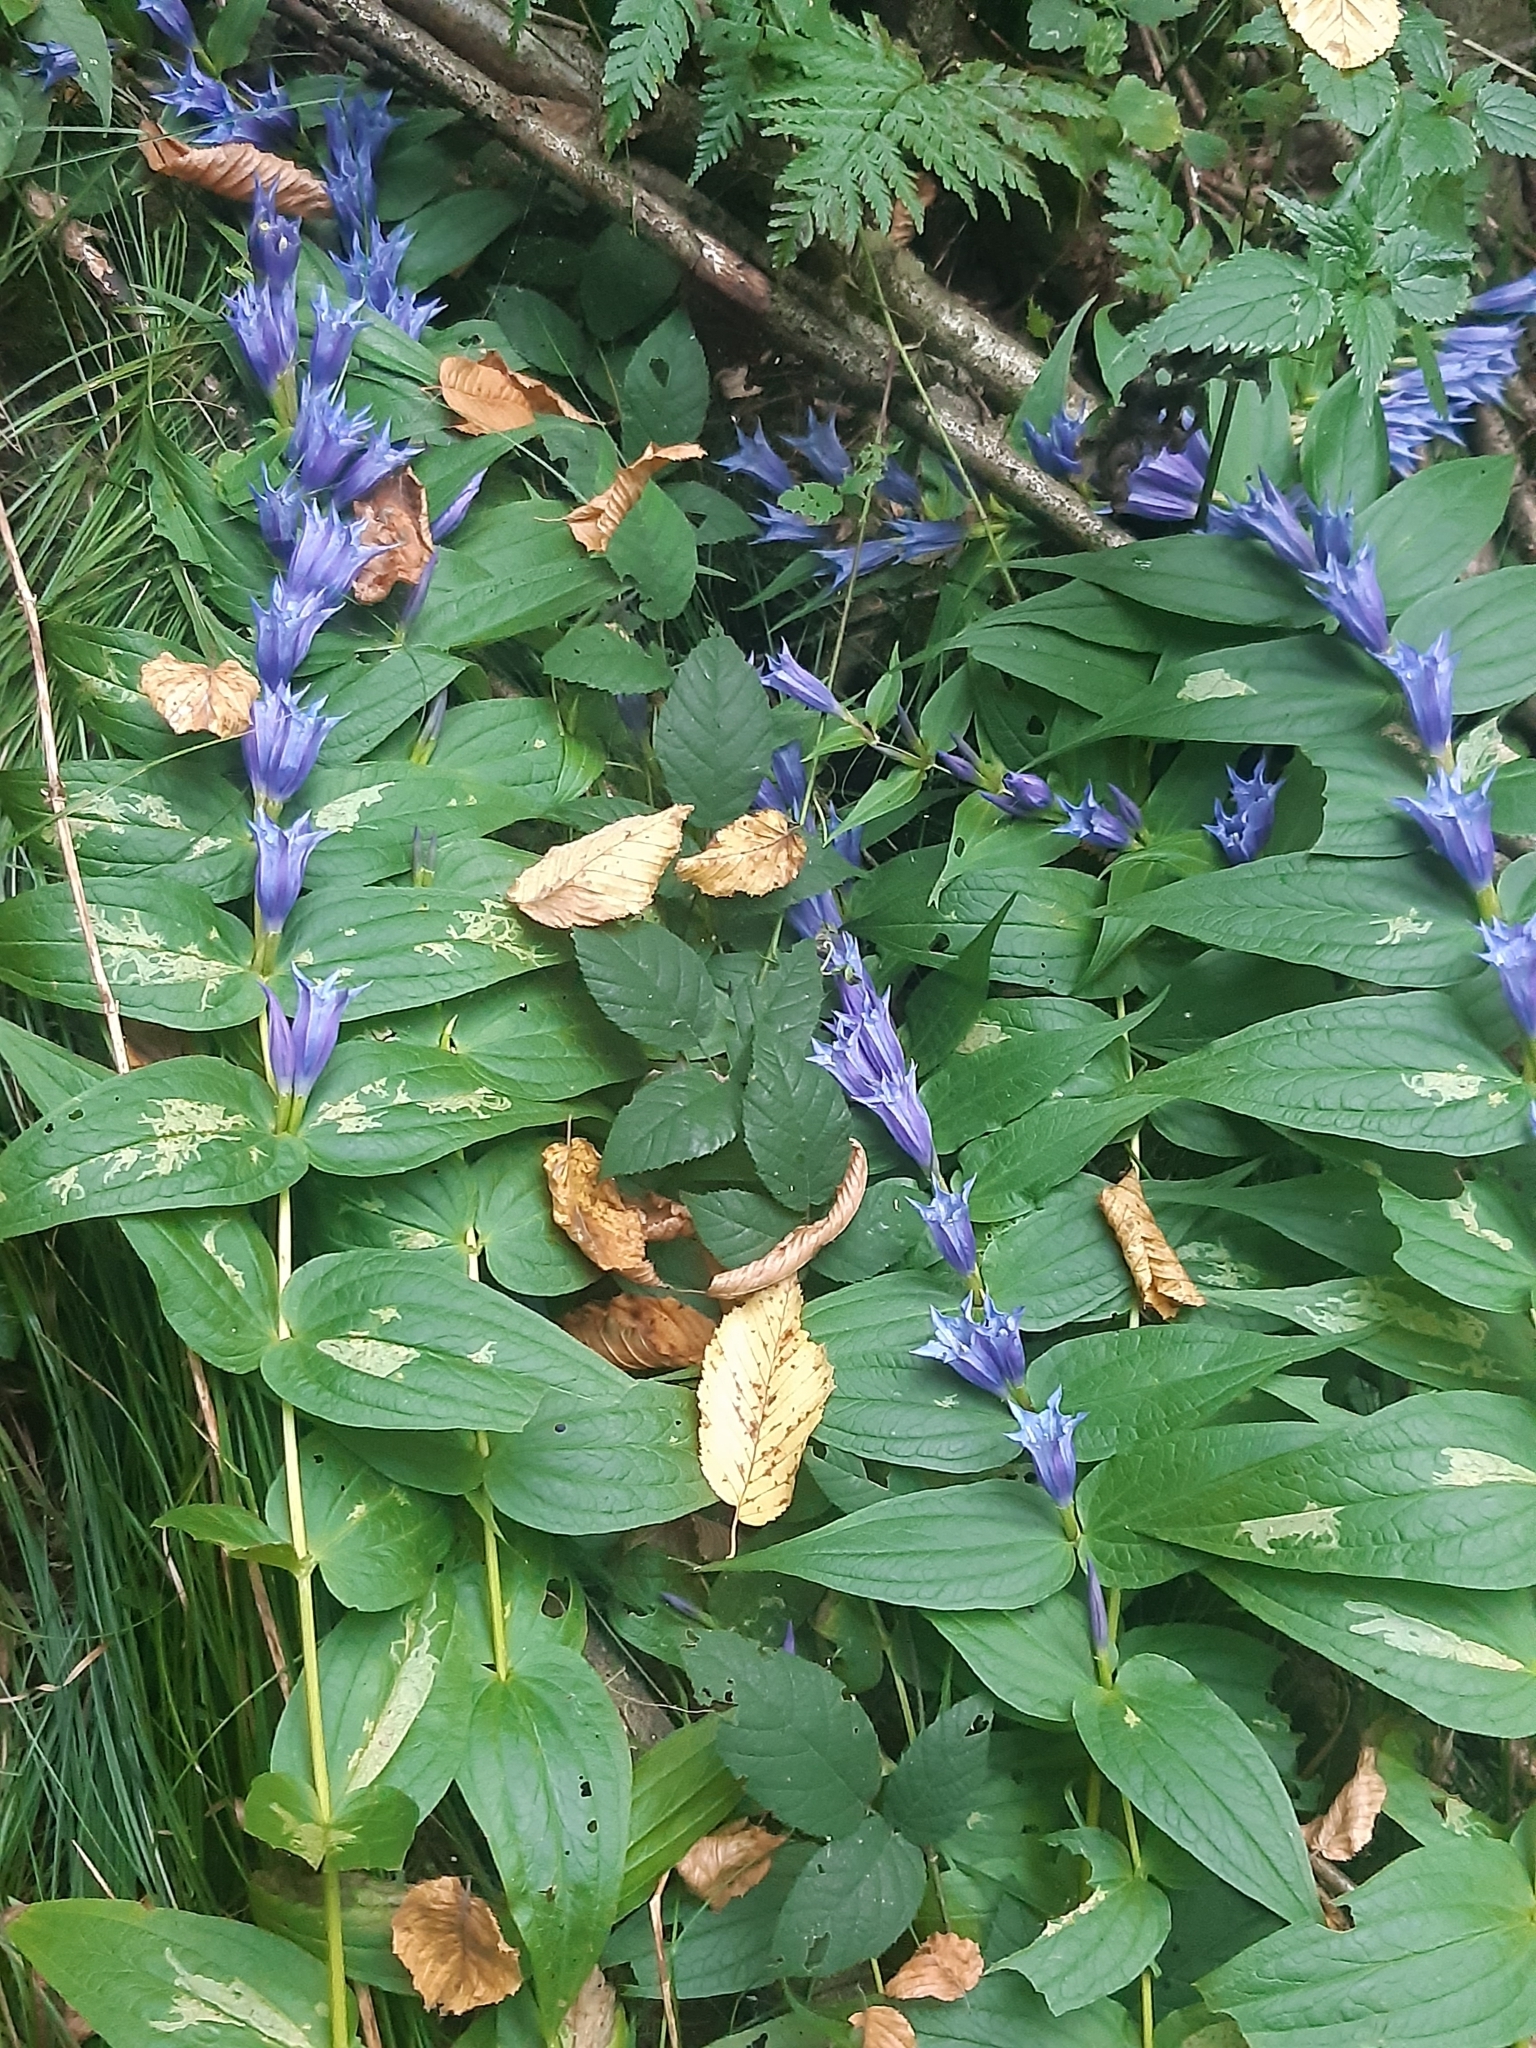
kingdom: Plantae
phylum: Tracheophyta
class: Magnoliopsida
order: Gentianales
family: Gentianaceae
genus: Gentiana
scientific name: Gentiana asclepiadea
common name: Willow gentian
